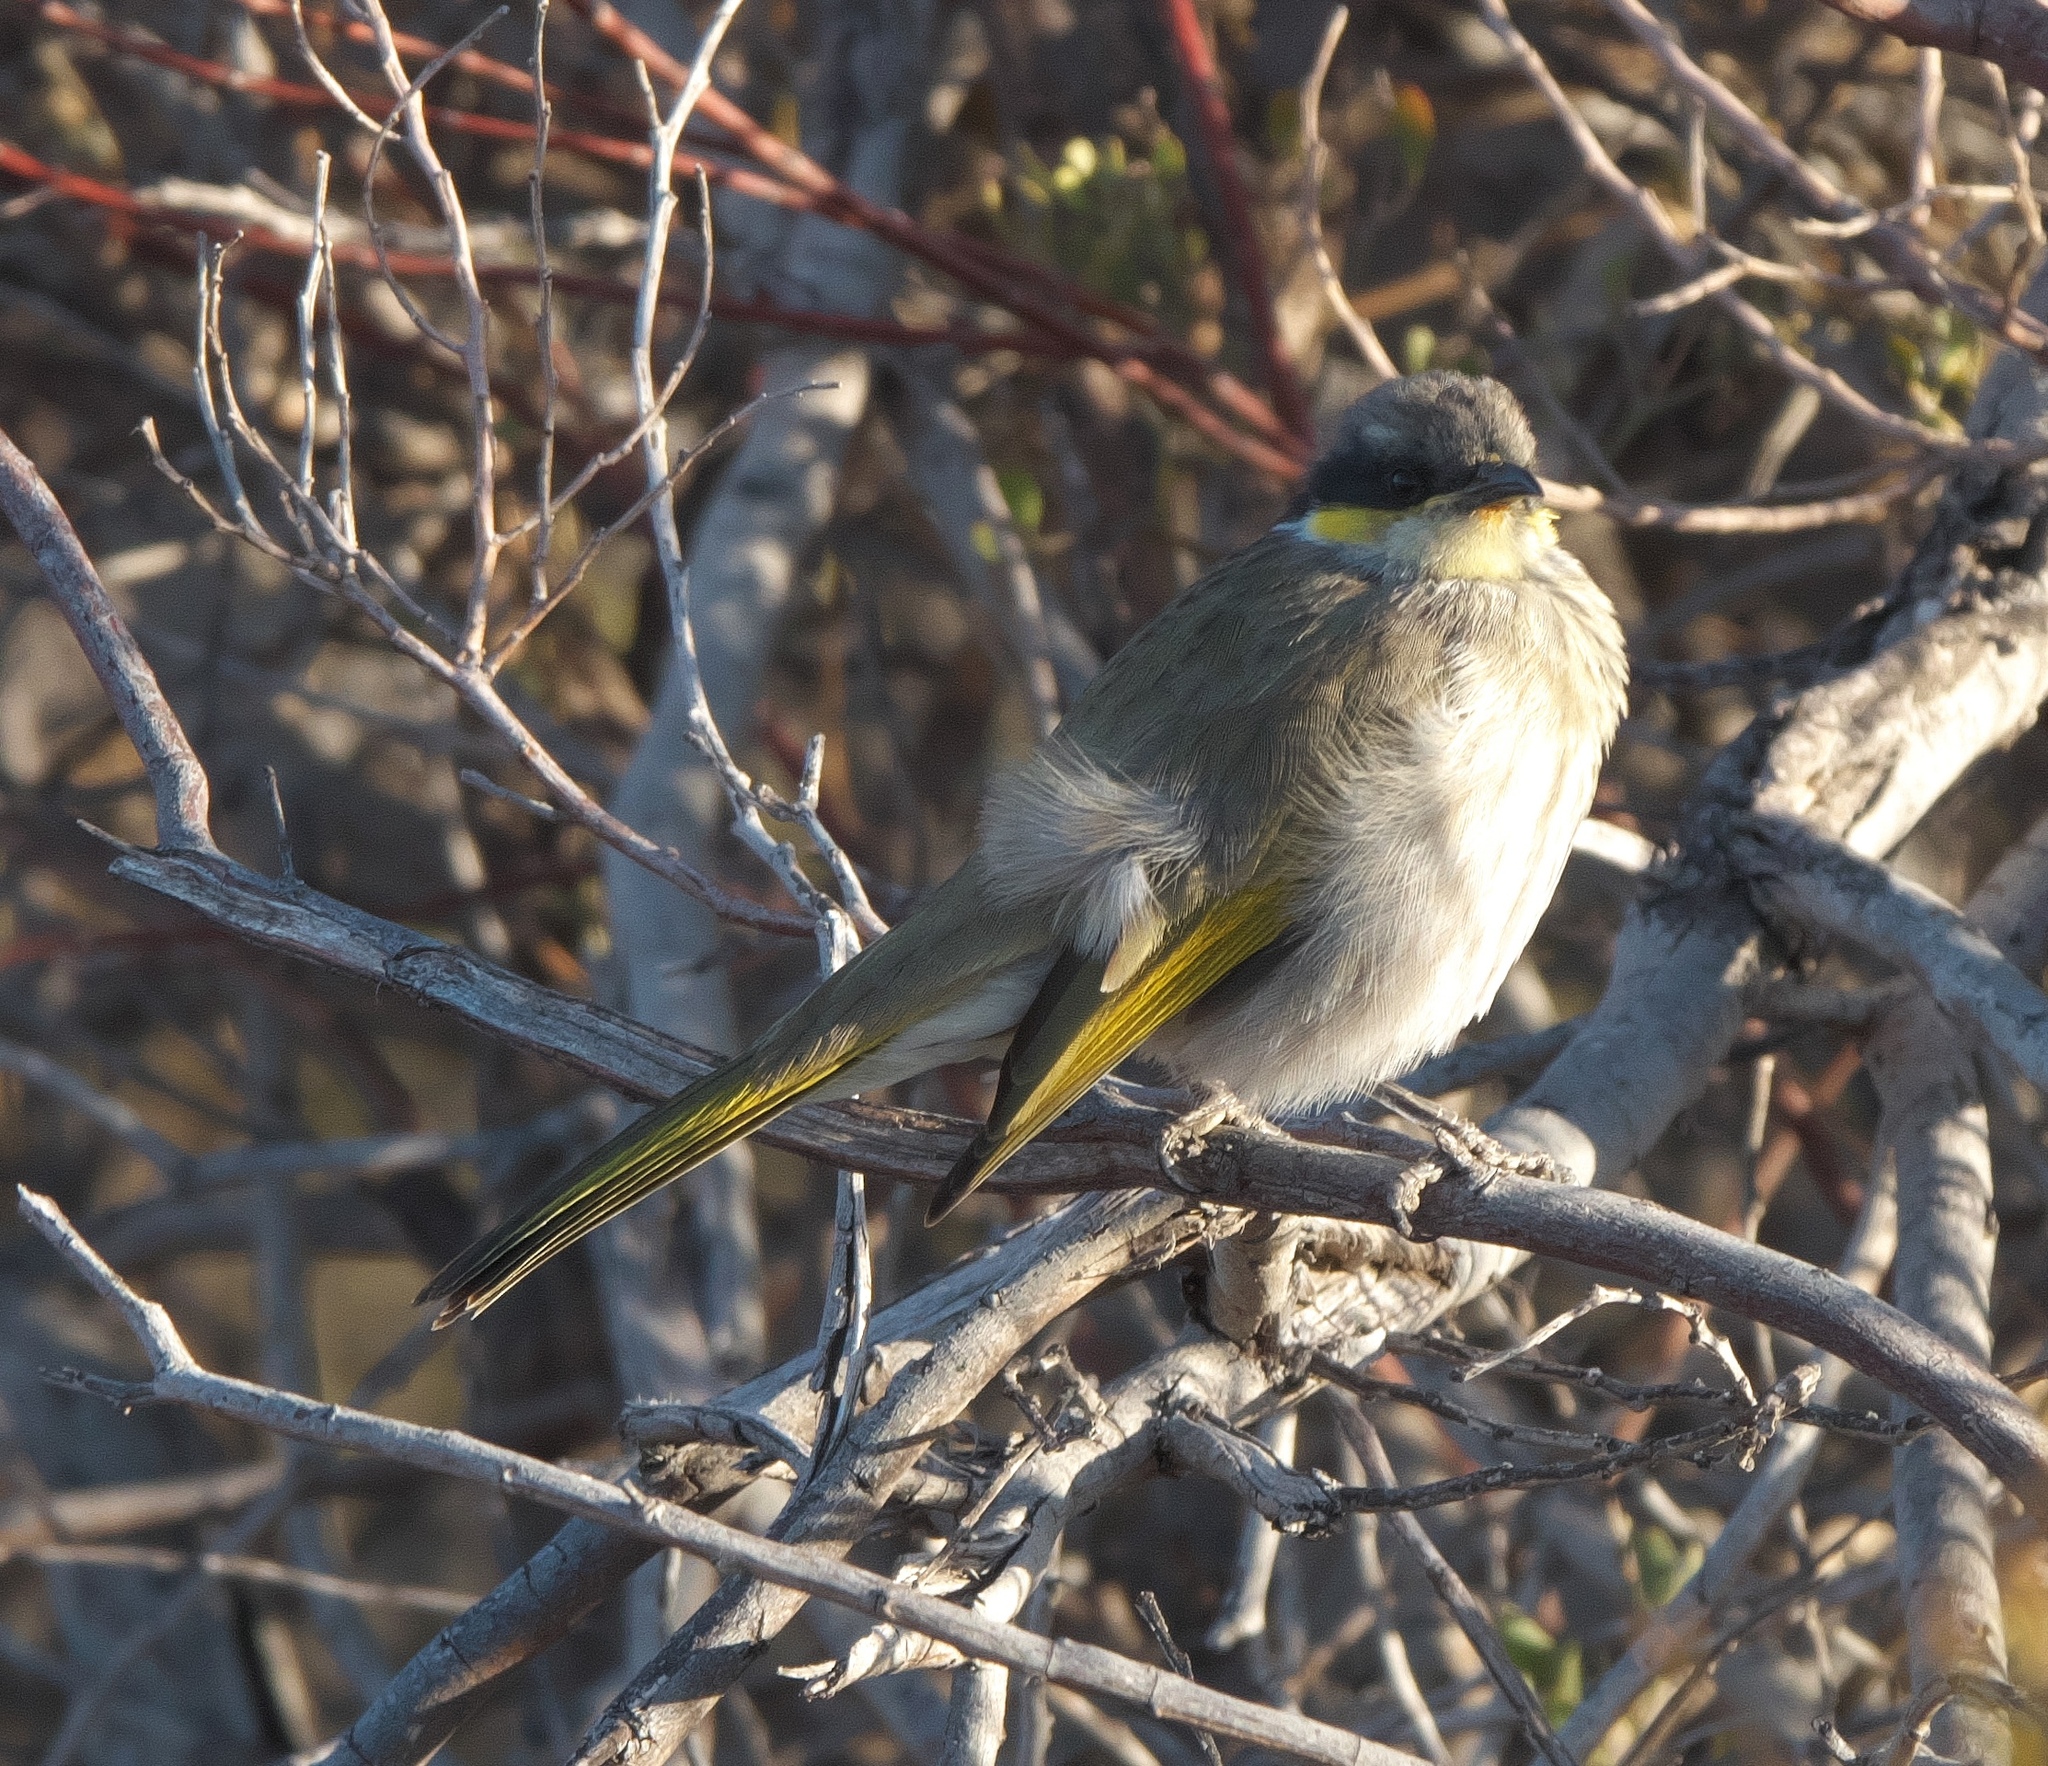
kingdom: Animalia
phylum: Chordata
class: Aves
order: Passeriformes
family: Meliphagidae
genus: Gavicalis
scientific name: Gavicalis virescens
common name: Singing honeyeater
